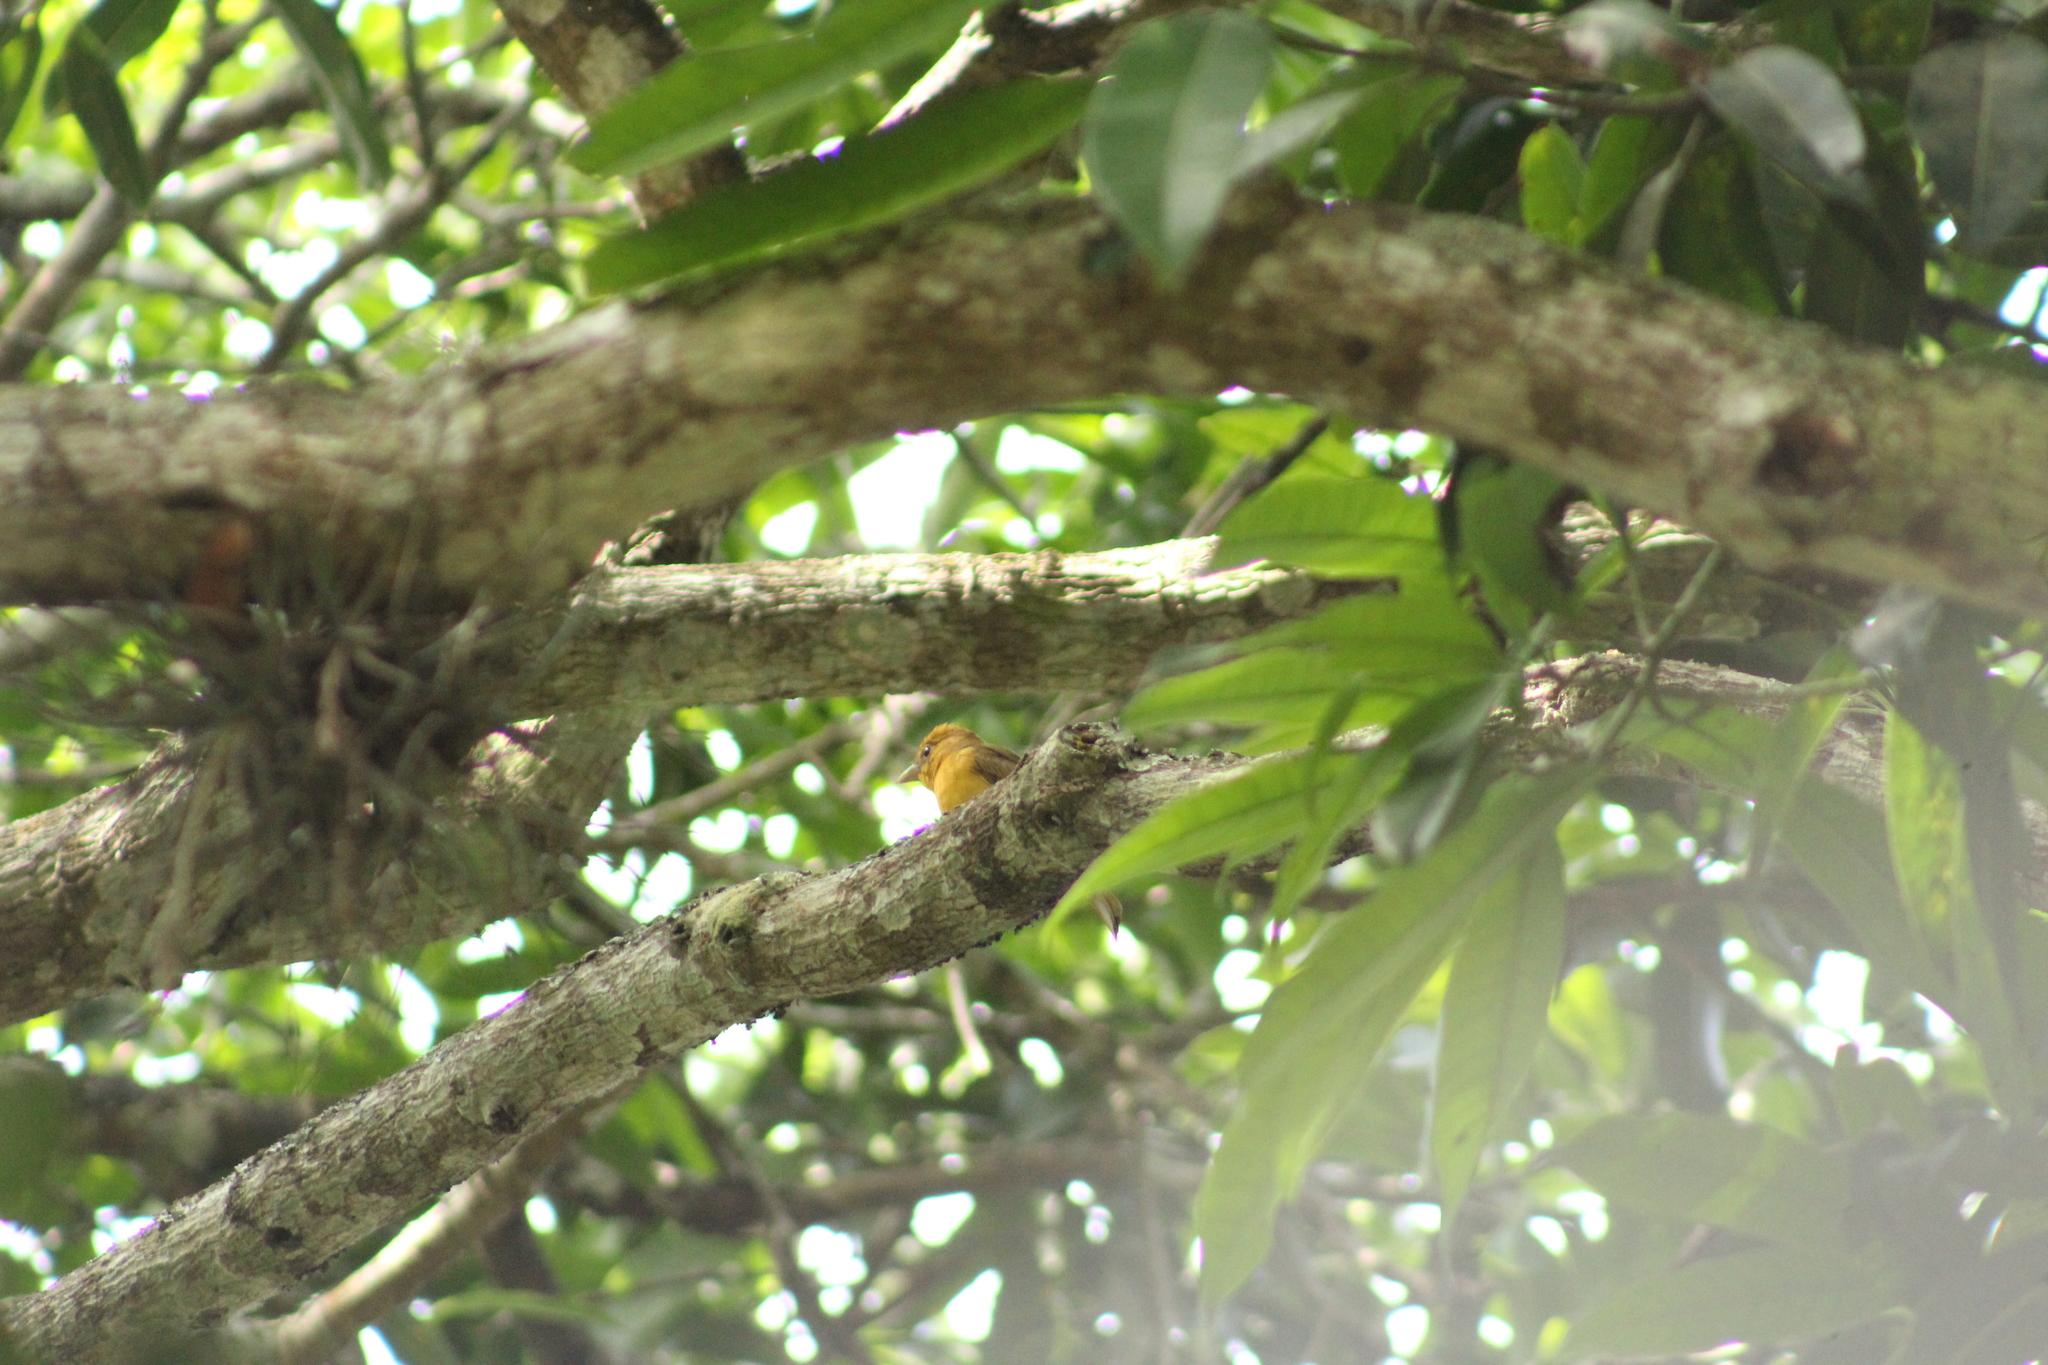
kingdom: Animalia
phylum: Chordata
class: Aves
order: Passeriformes
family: Cardinalidae
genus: Piranga
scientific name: Piranga rubra
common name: Summer tanager
